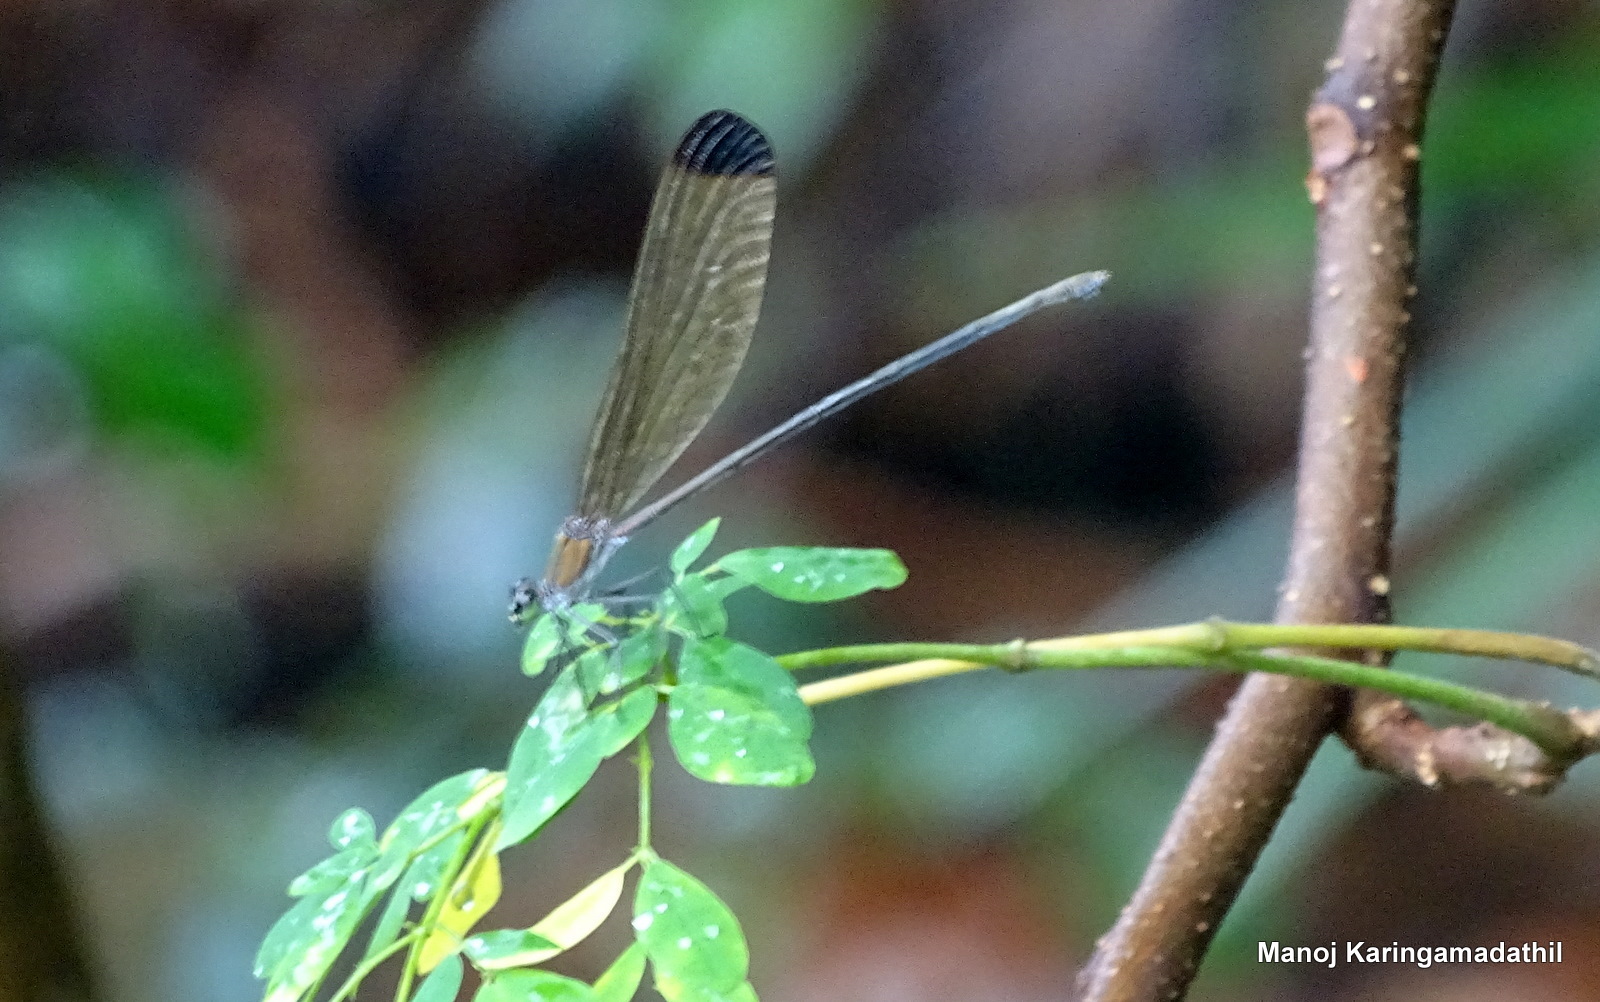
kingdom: Animalia
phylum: Arthropoda
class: Insecta
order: Odonata
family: Calopterygidae
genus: Vestalis
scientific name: Vestalis apicalis
